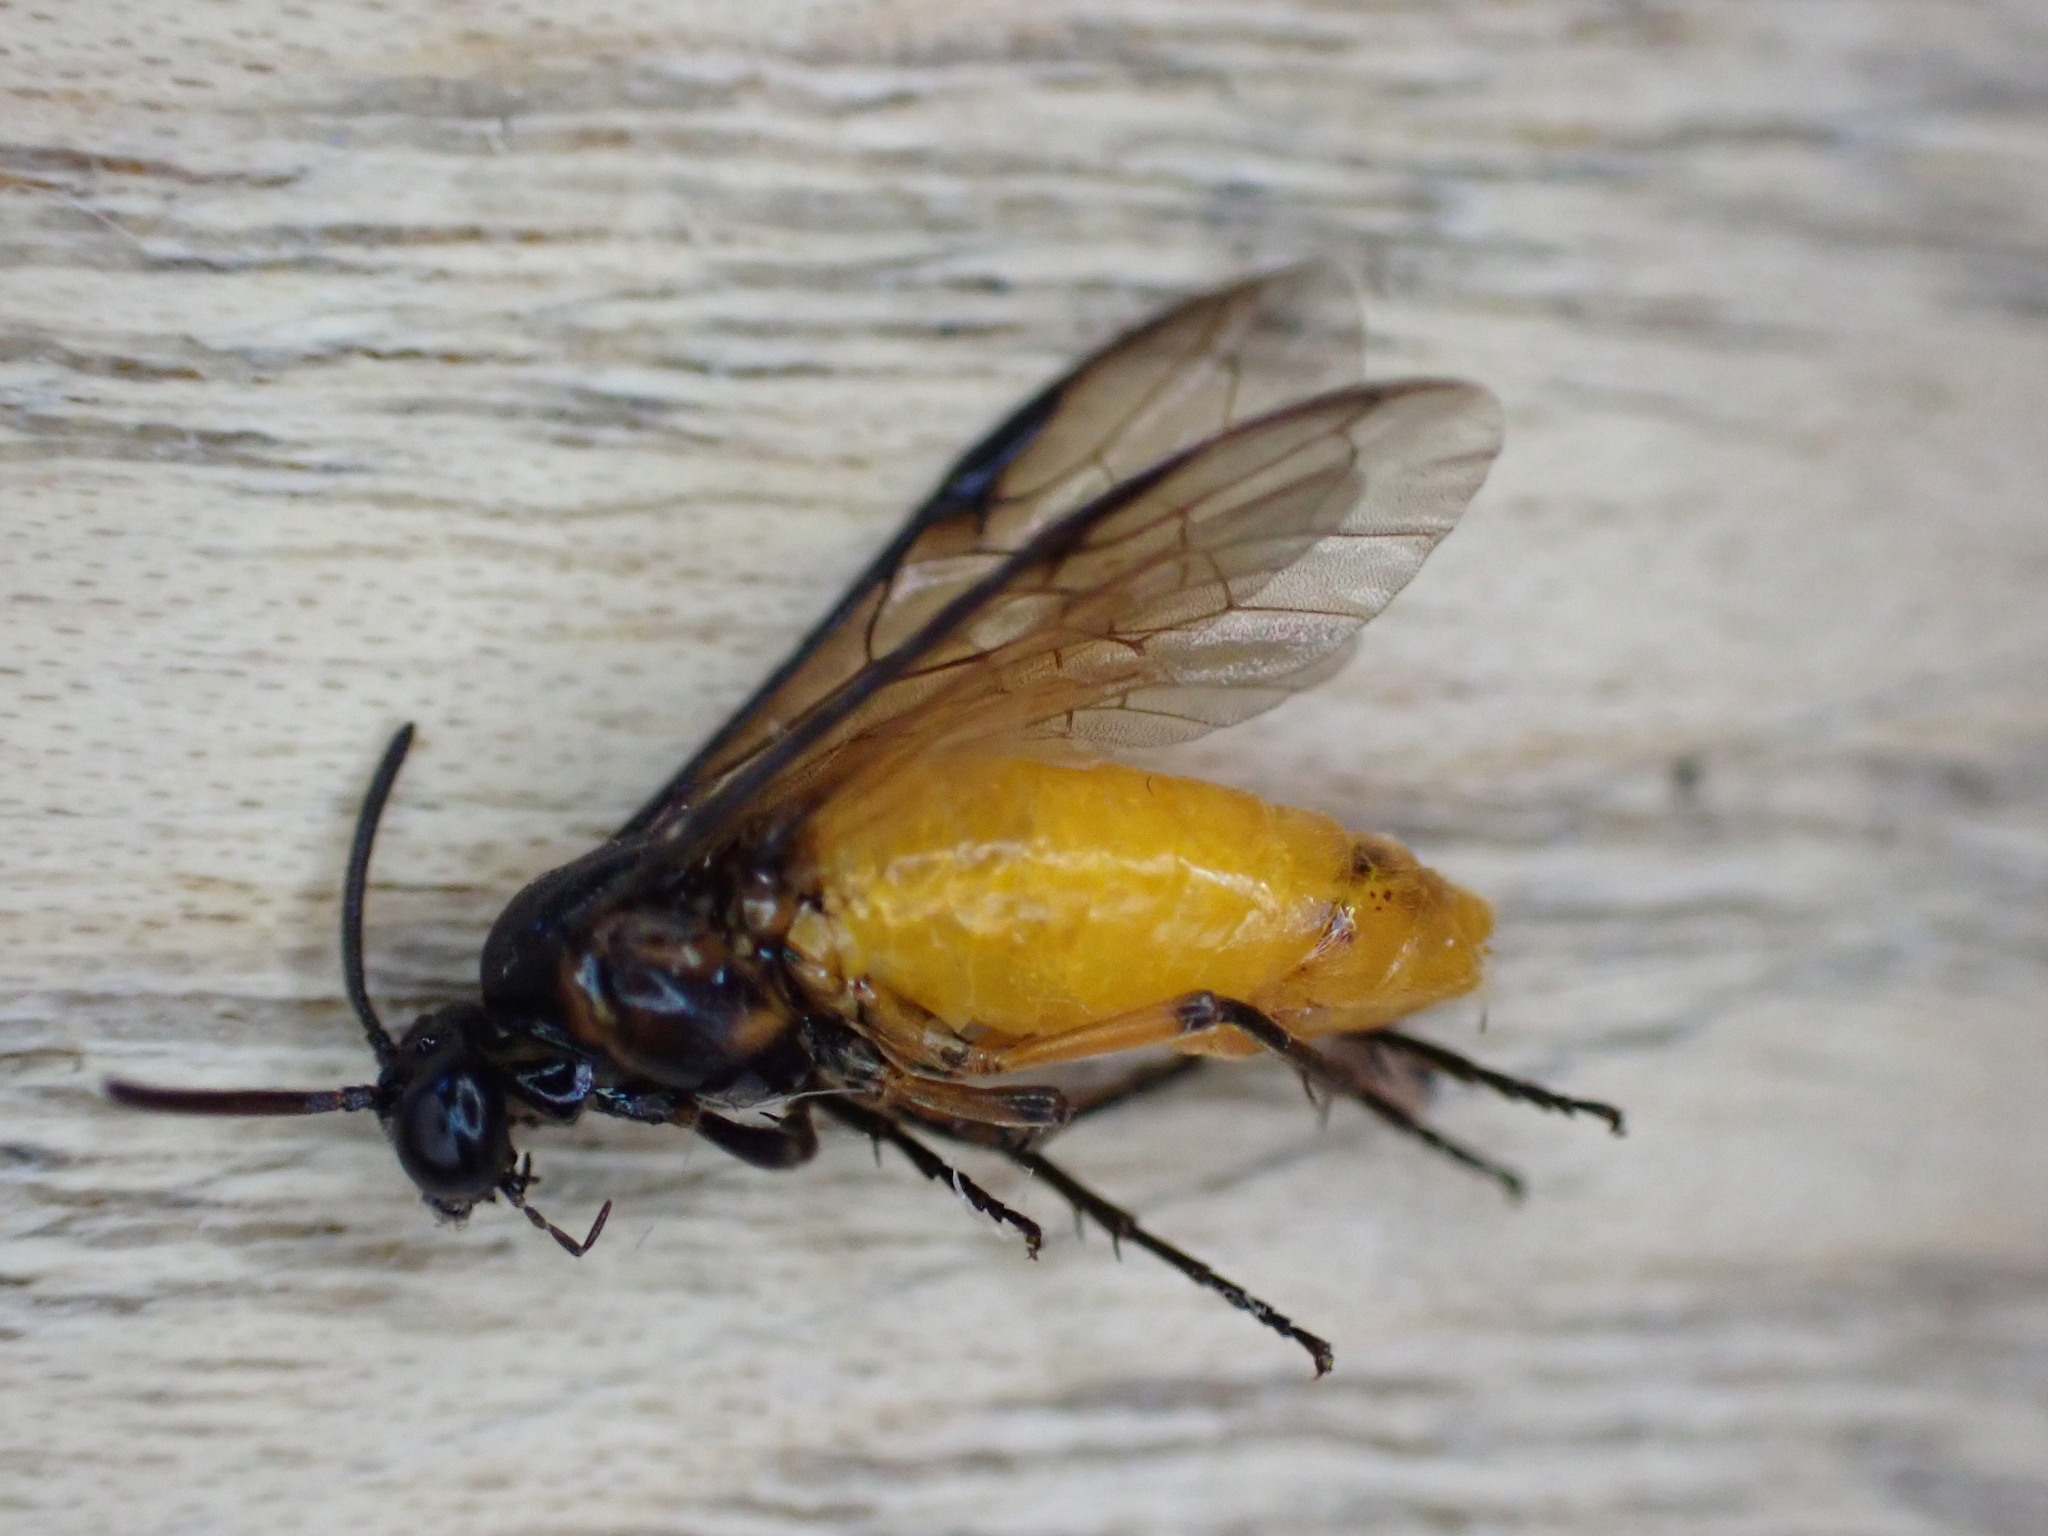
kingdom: Animalia
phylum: Arthropoda
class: Insecta
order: Hymenoptera
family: Argidae
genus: Arge
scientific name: Arge pagana
